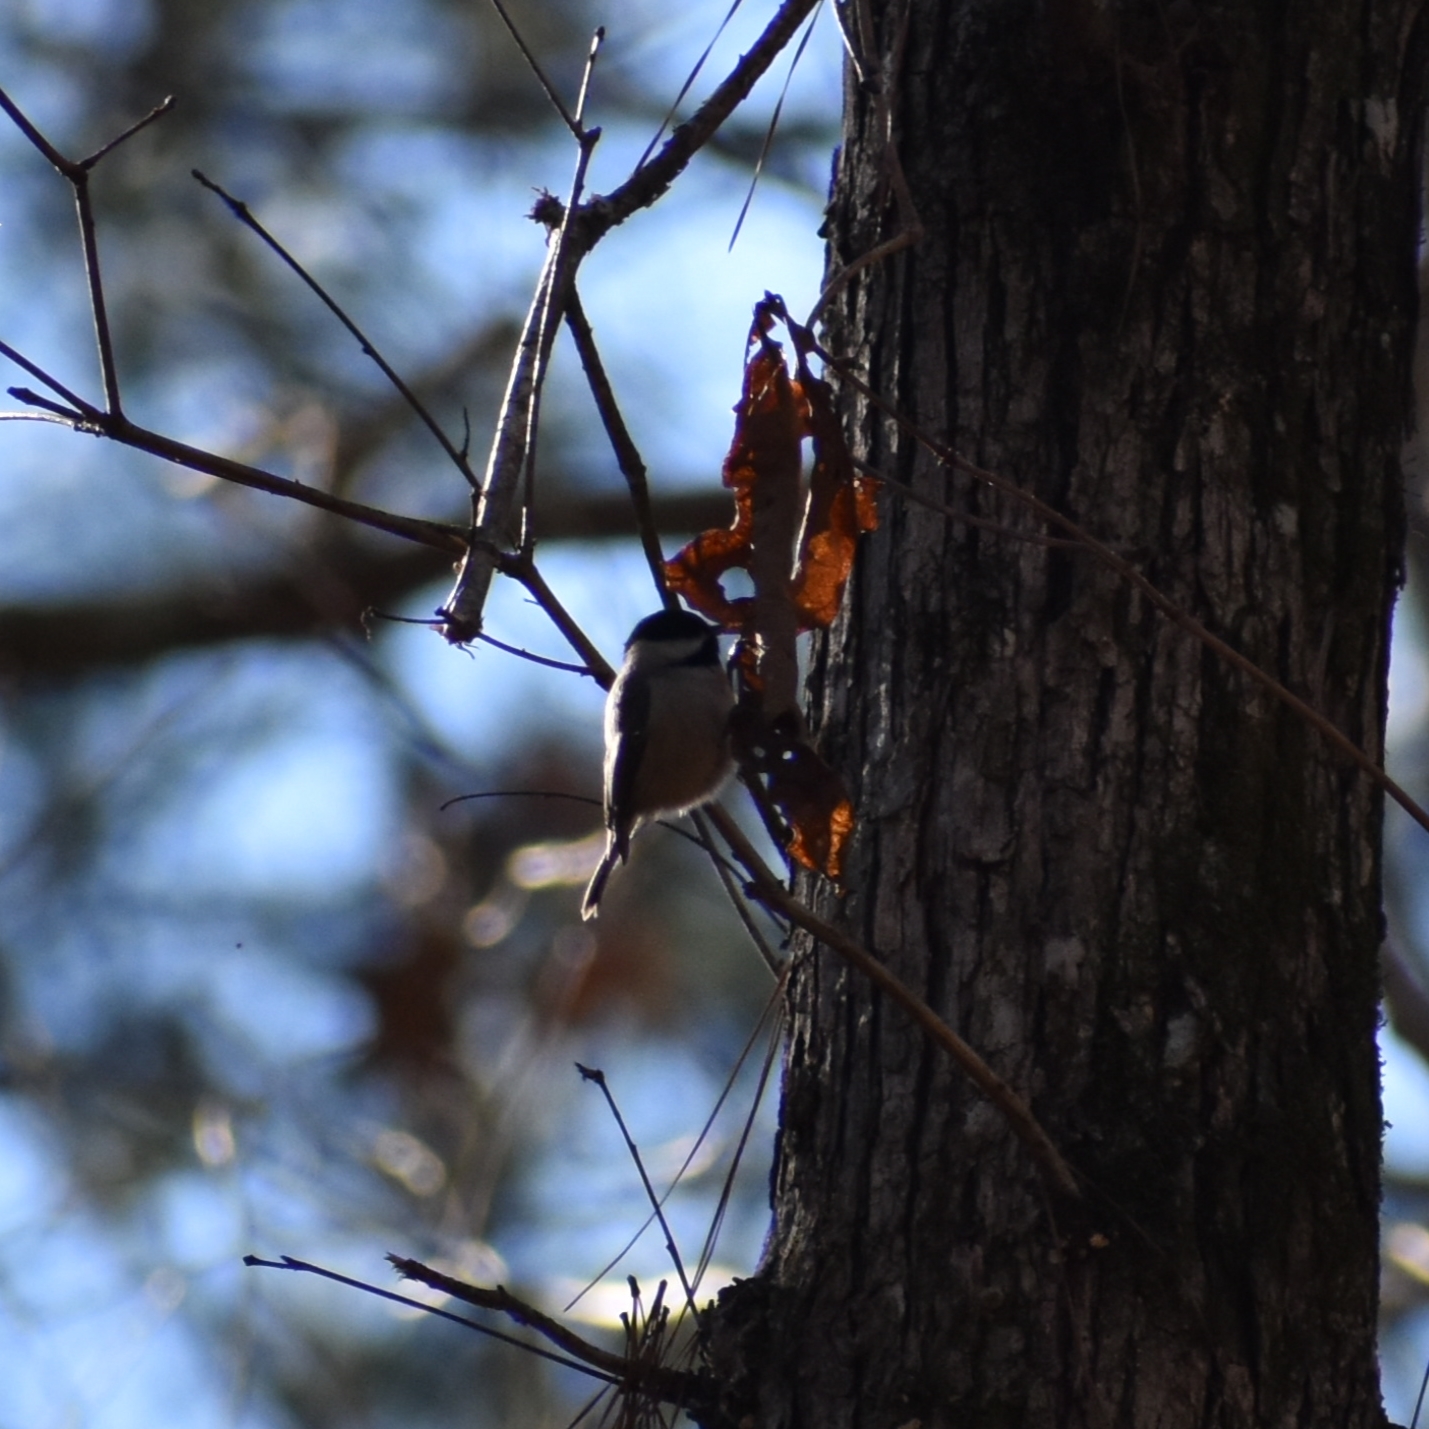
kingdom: Animalia
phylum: Chordata
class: Aves
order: Passeriformes
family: Paridae
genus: Poecile
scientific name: Poecile carolinensis
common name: Carolina chickadee
